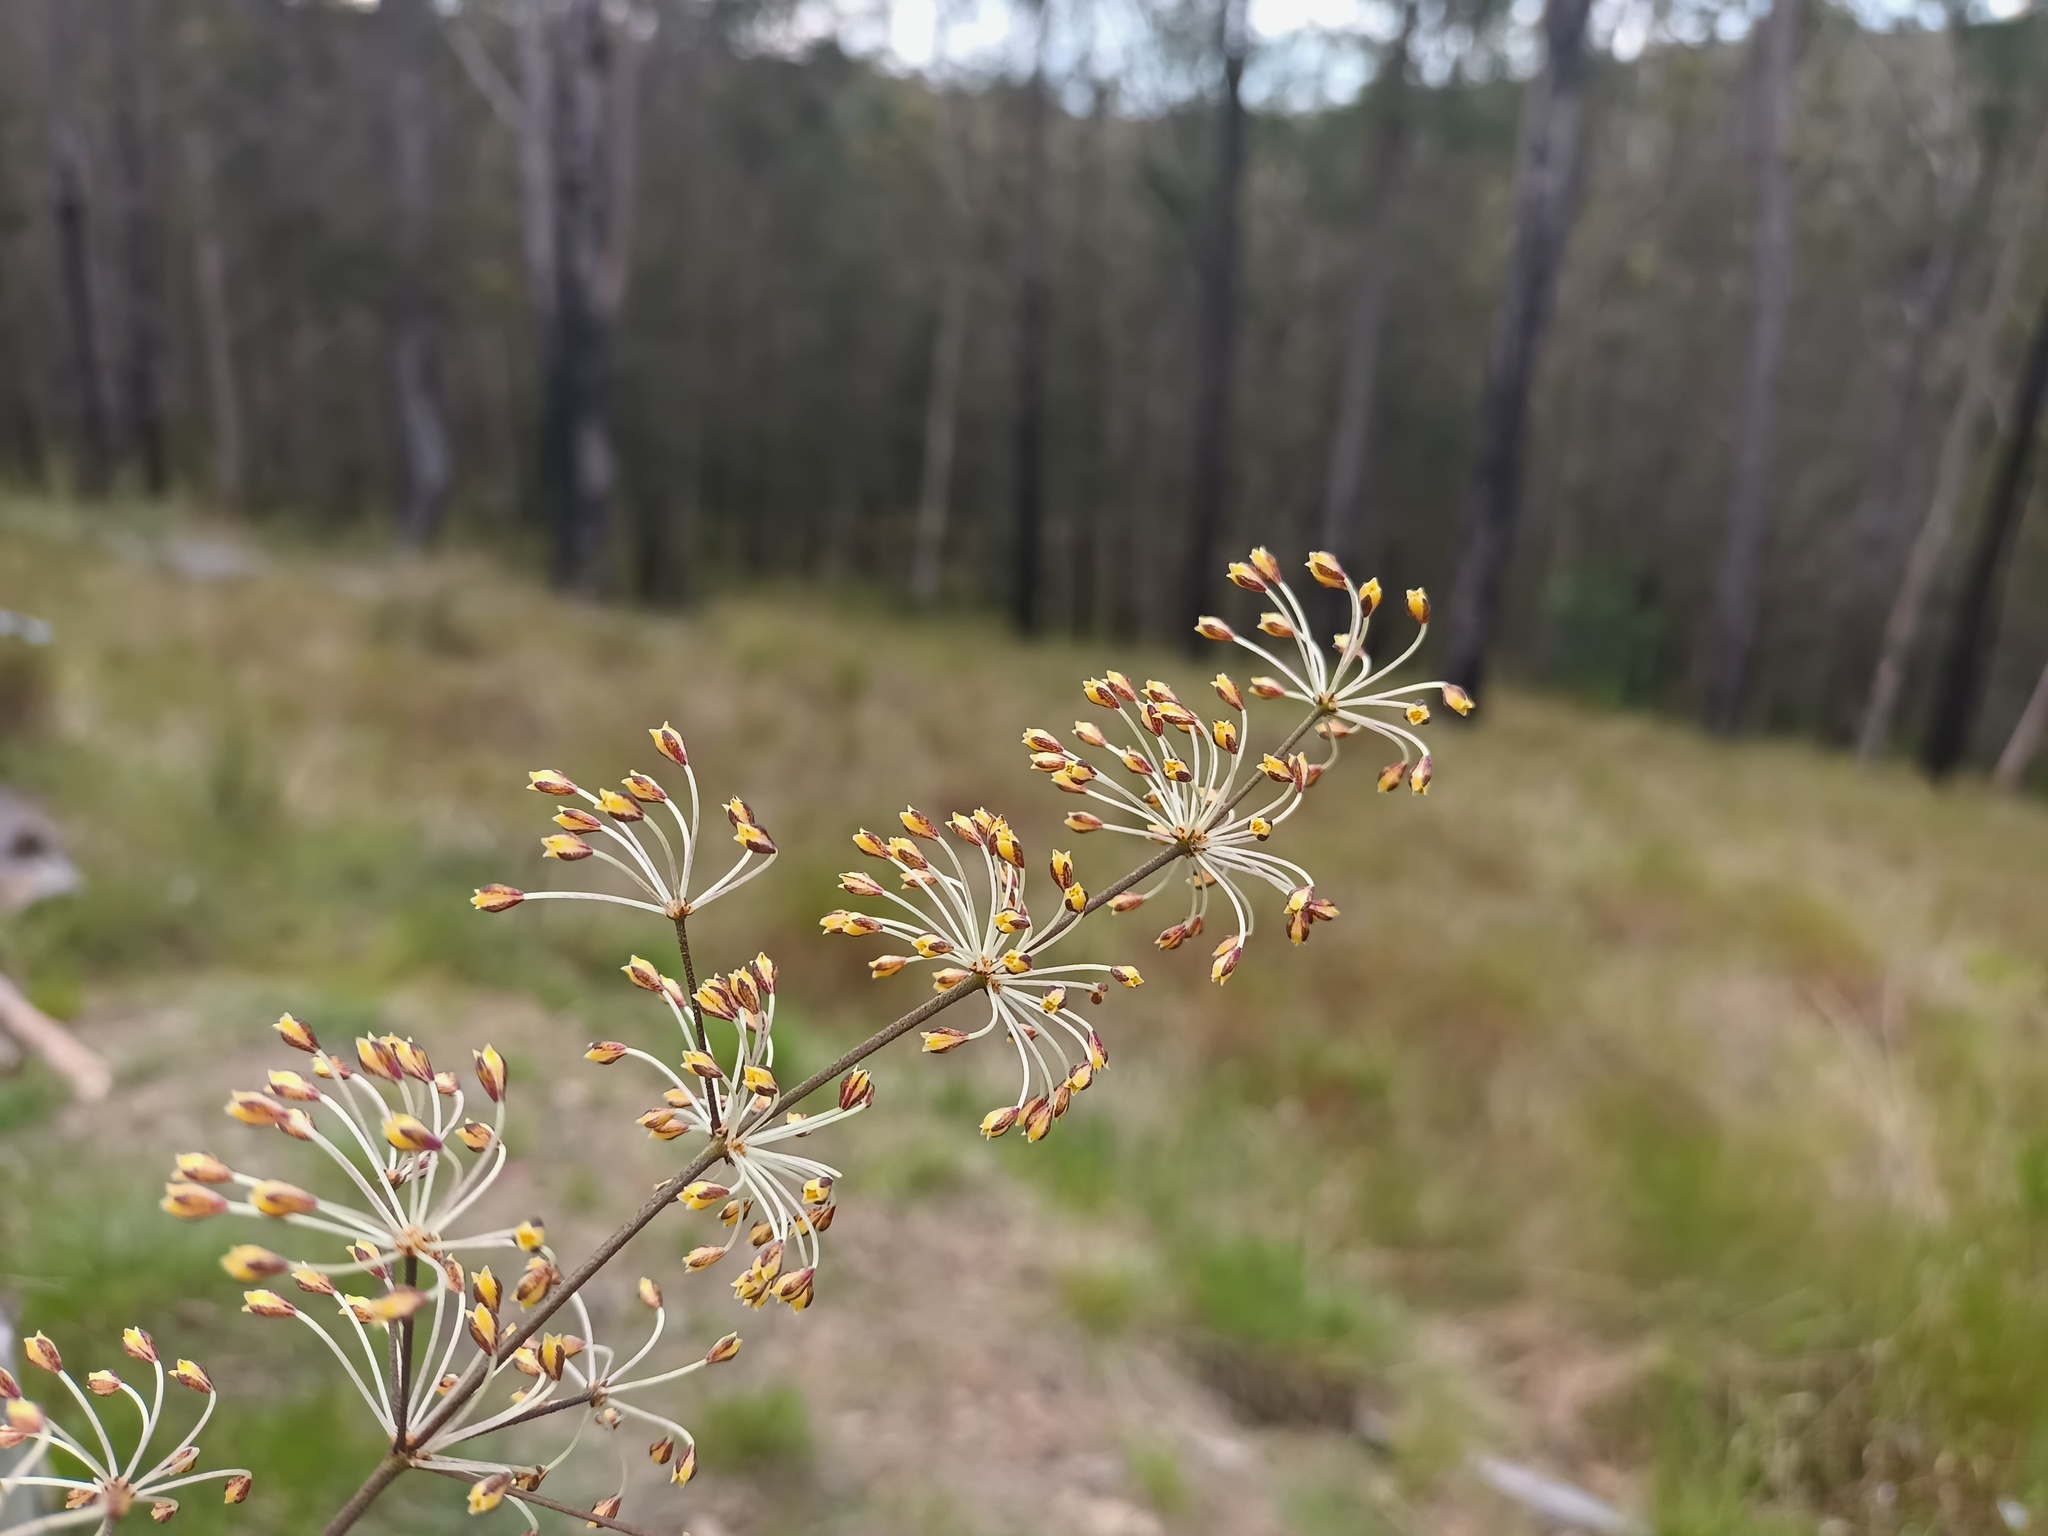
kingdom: Plantae
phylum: Tracheophyta
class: Liliopsida
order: Asparagales
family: Asparagaceae
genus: Lomandra
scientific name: Lomandra multiflora
